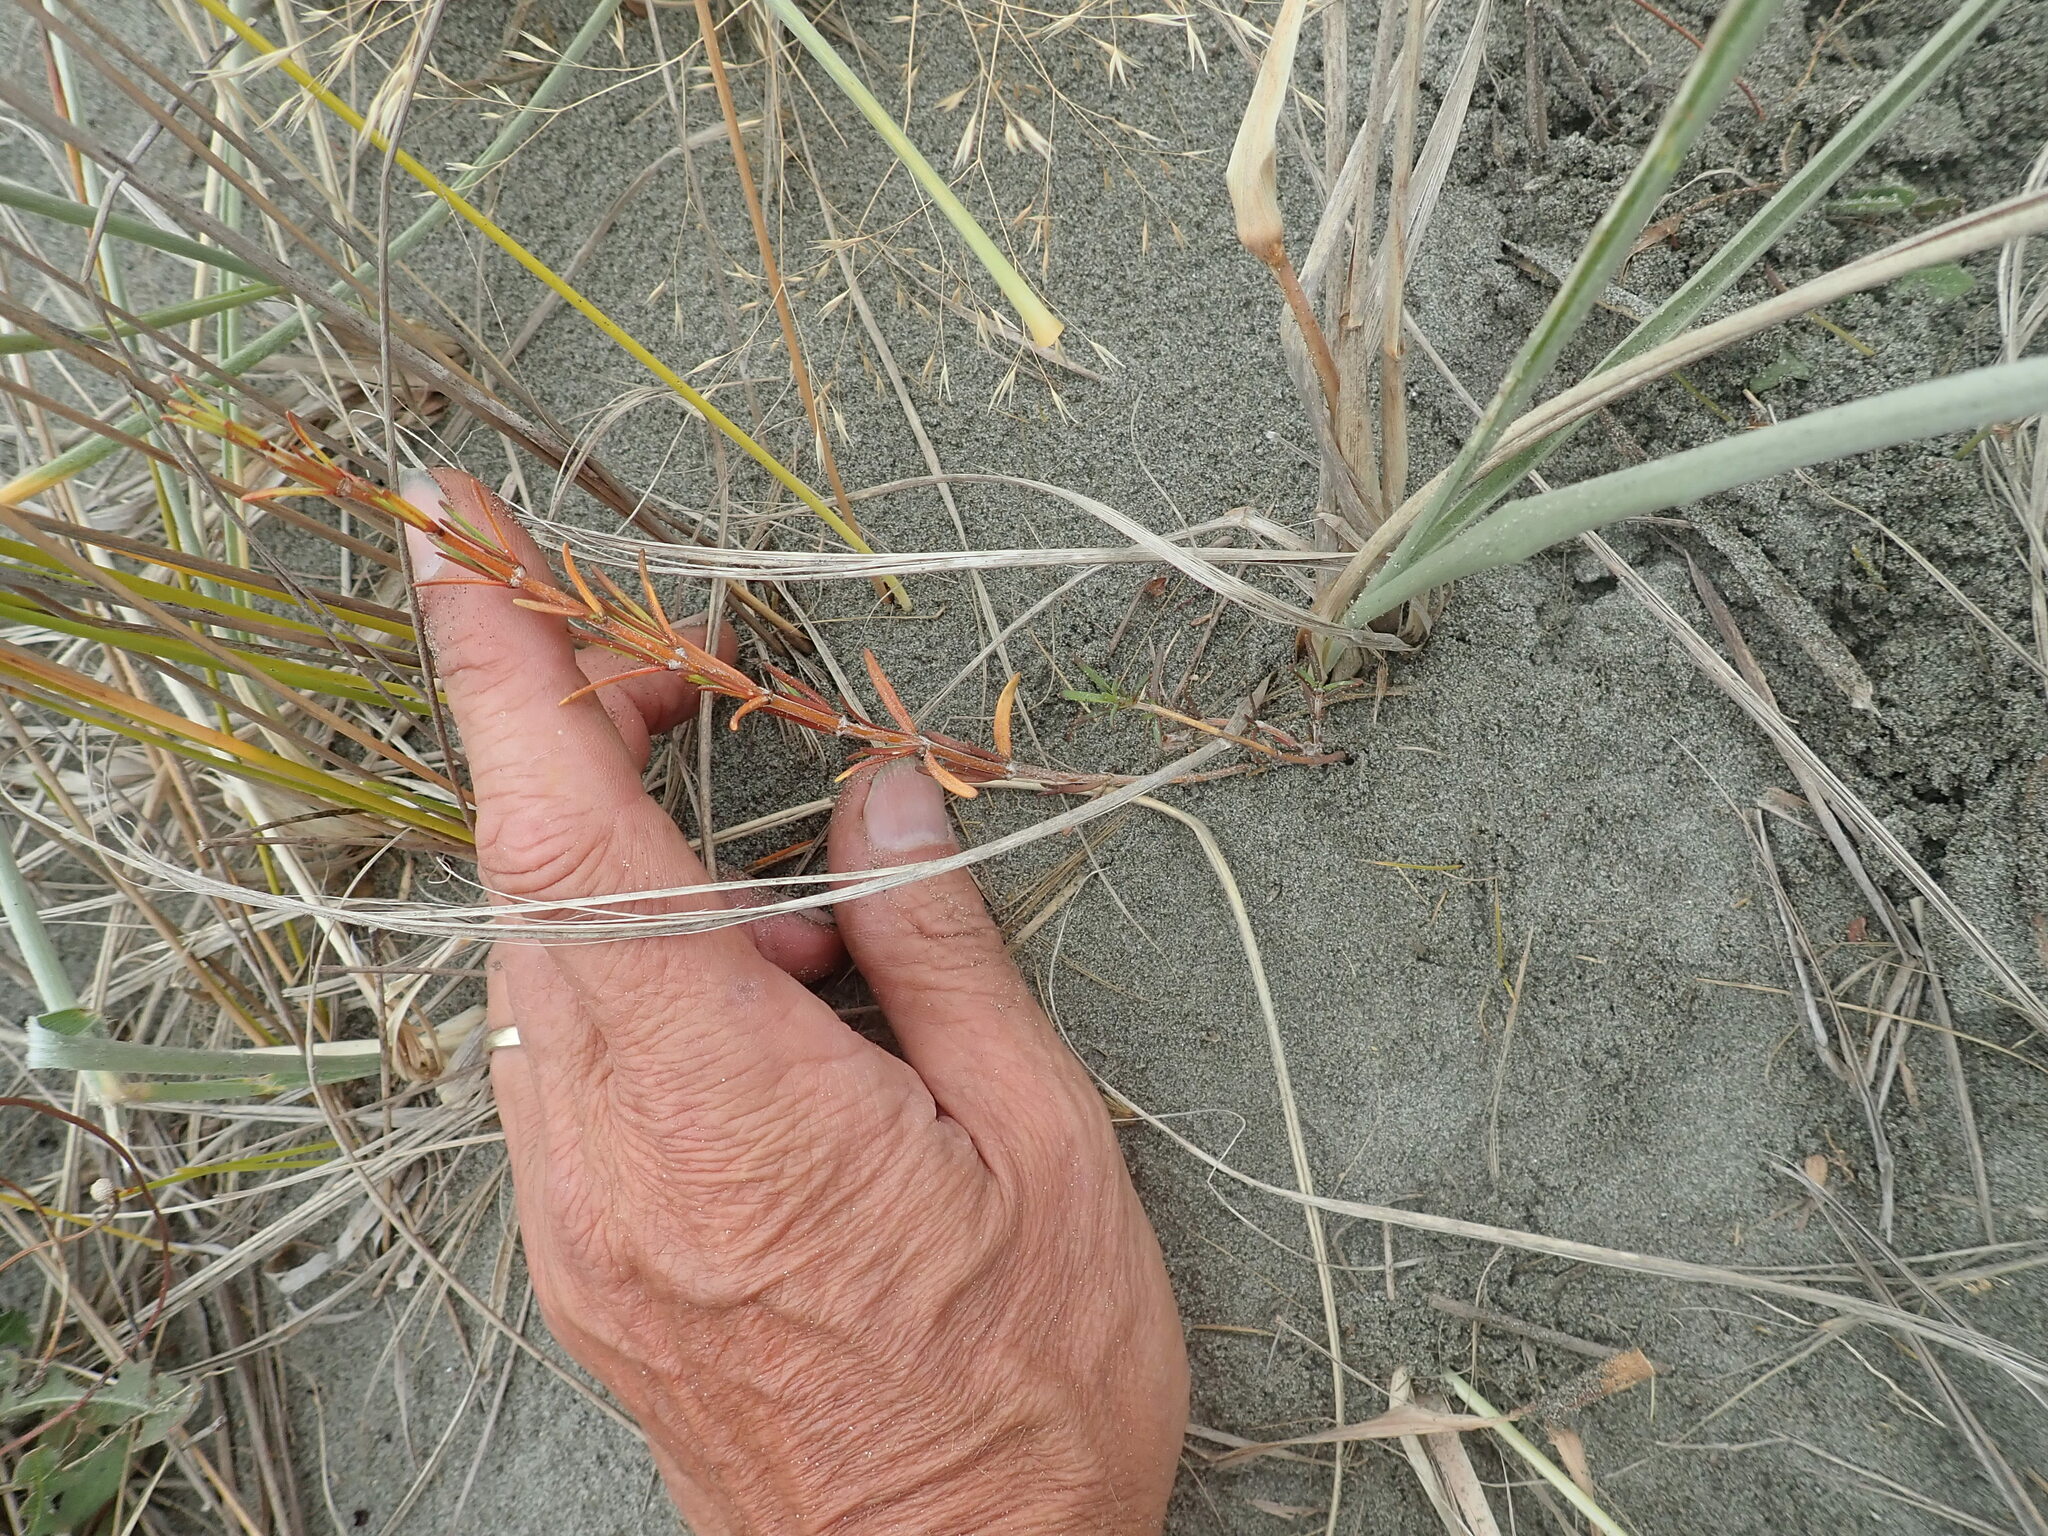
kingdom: Plantae
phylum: Tracheophyta
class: Magnoliopsida
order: Gentianales
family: Rubiaceae
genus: Coprosma
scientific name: Coprosma acerosa
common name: Sand coprosma
